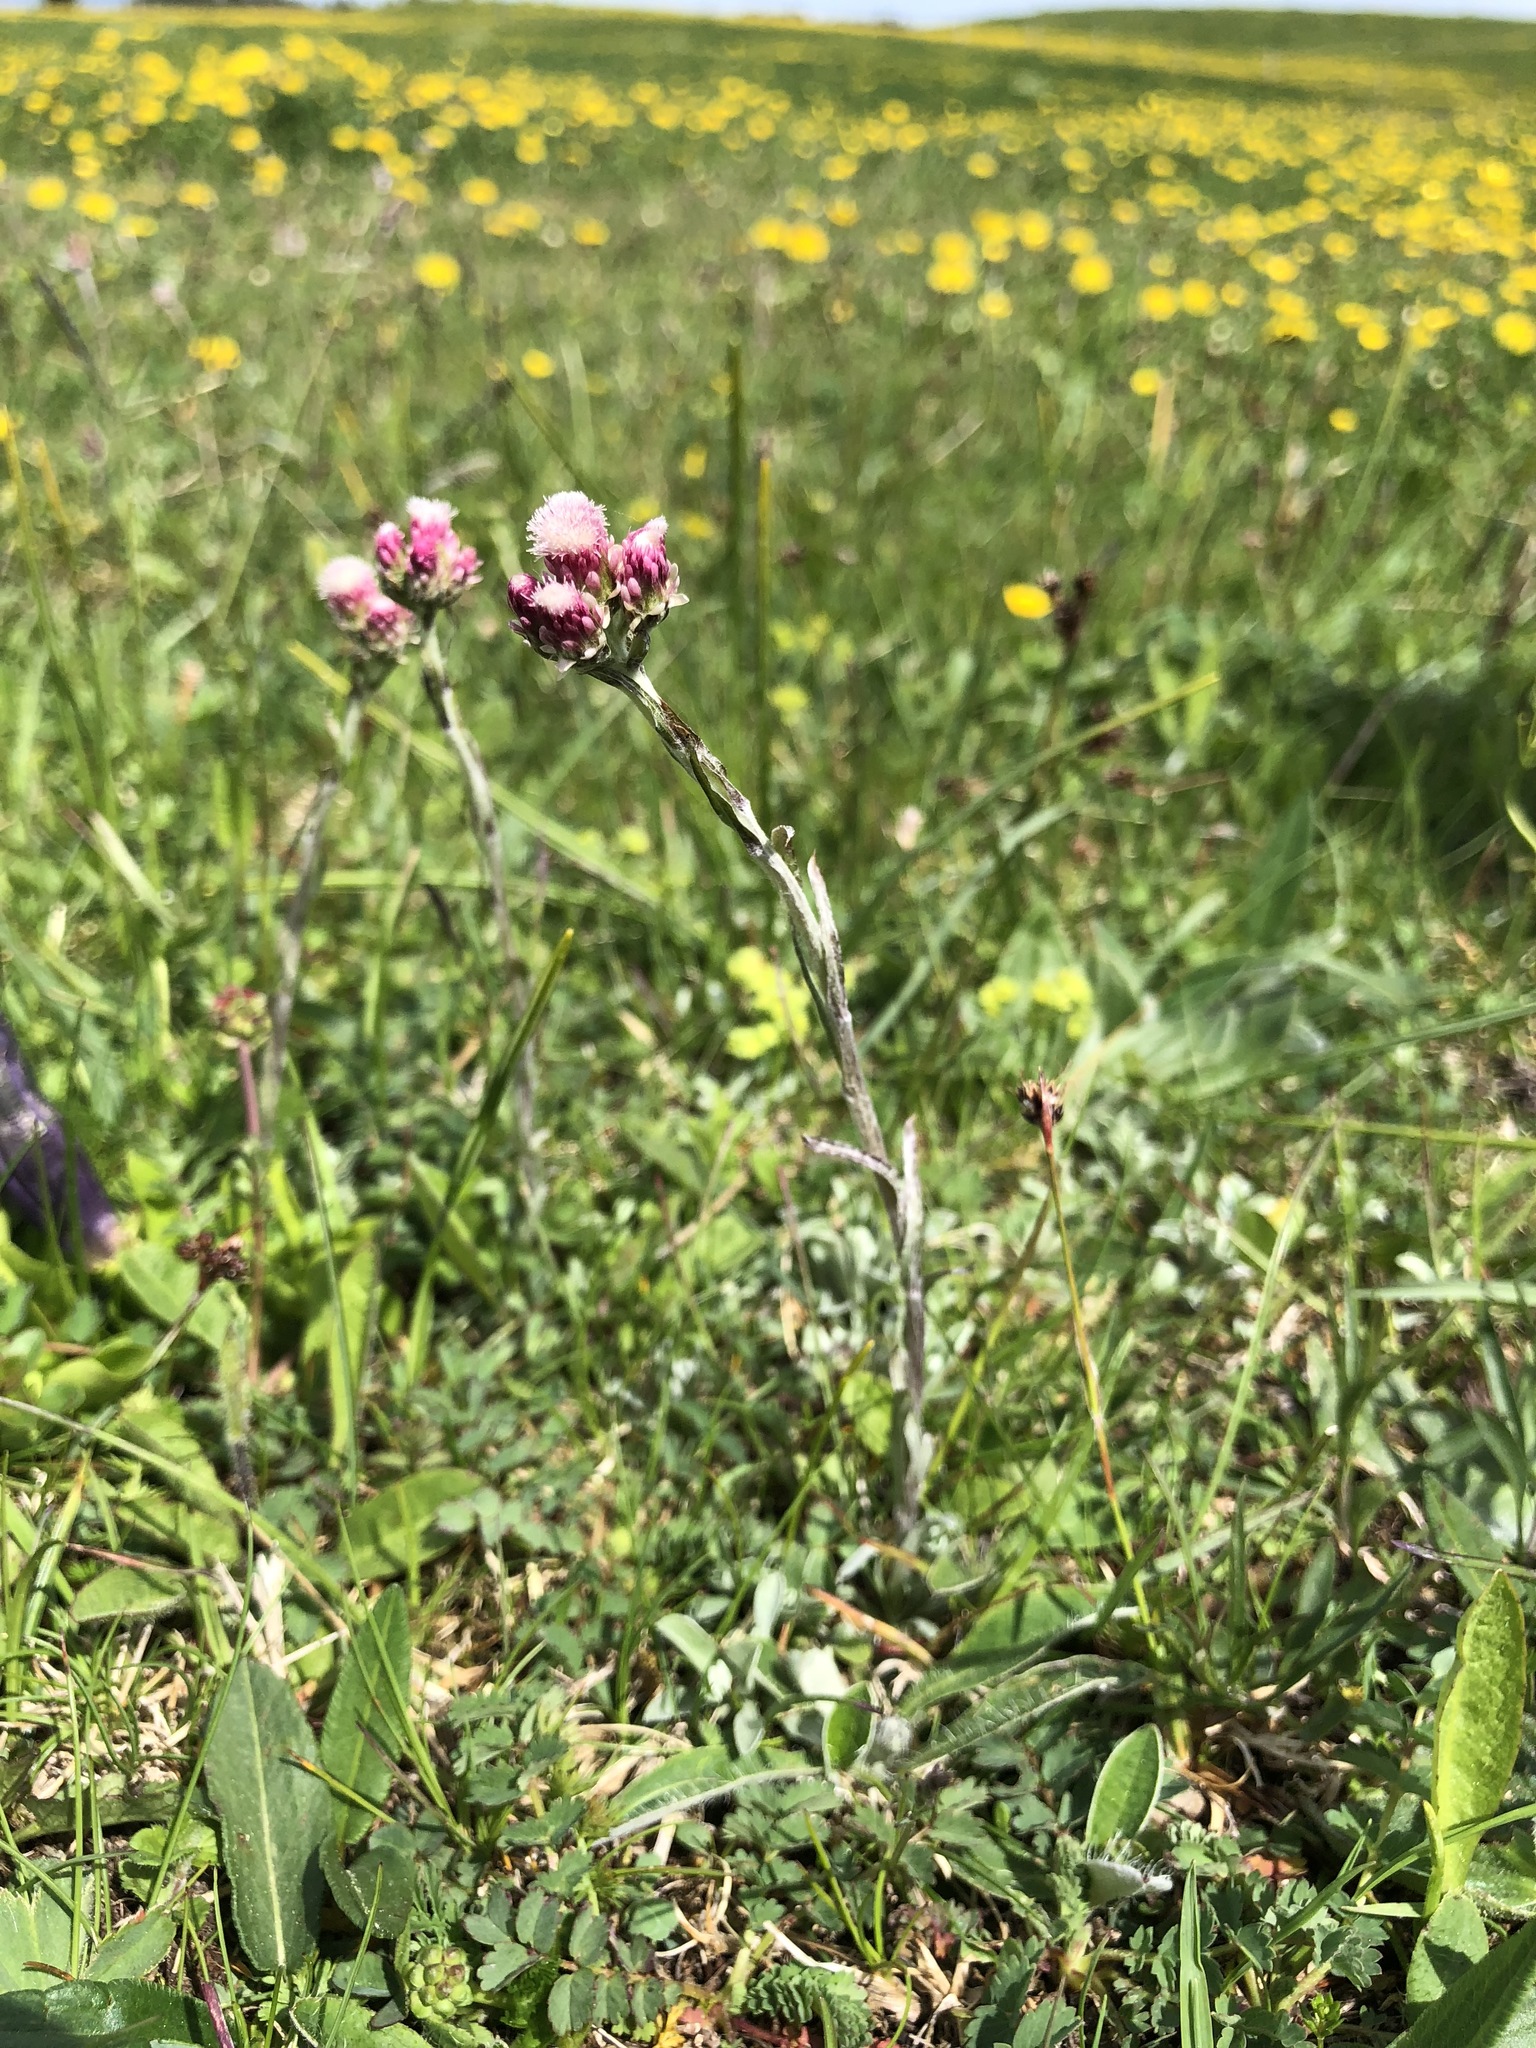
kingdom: Plantae
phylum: Tracheophyta
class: Magnoliopsida
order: Asterales
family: Asteraceae
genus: Antennaria
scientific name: Antennaria dioica
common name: Mountain everlasting
